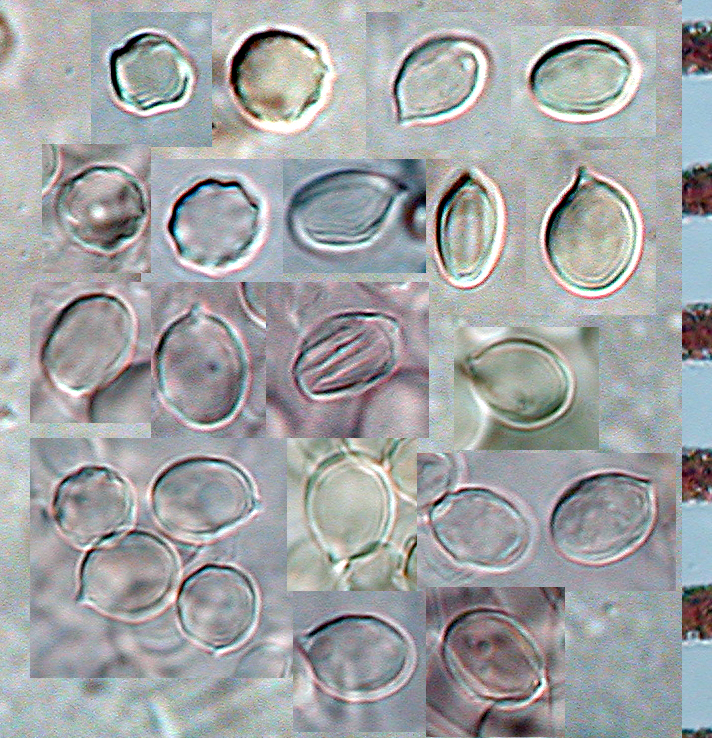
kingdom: Fungi
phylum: Basidiomycota
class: Agaricomycetes
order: Agaricales
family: Entolomataceae
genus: Clitopilus
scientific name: Clitopilus hobsonii
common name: Miller's oysterling
